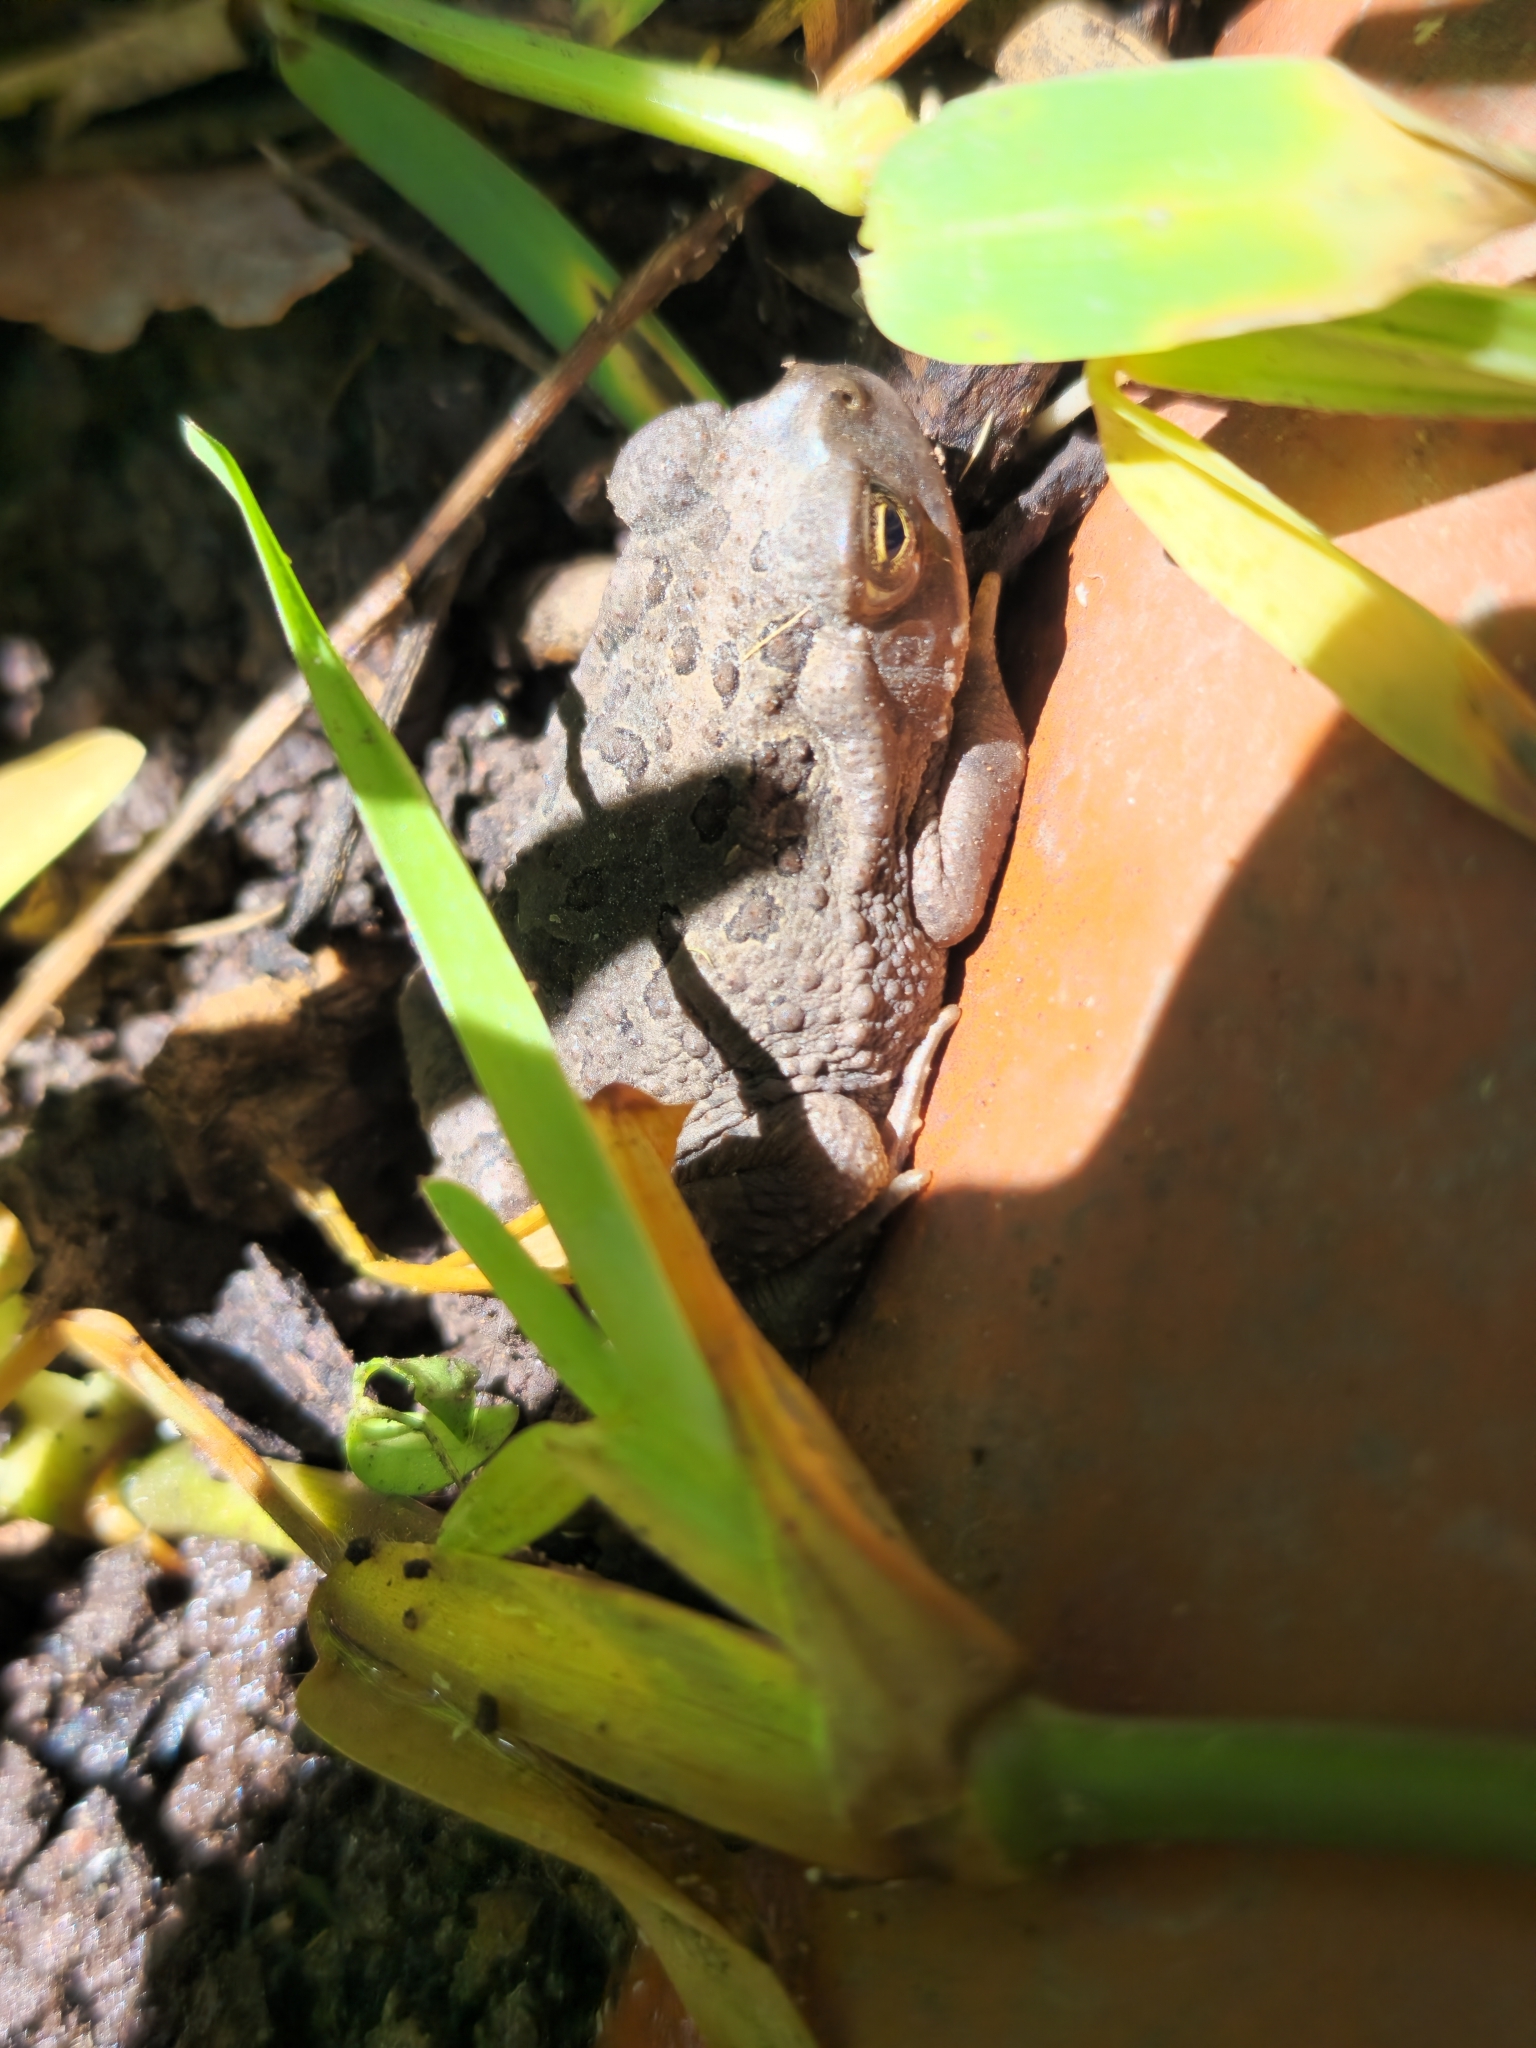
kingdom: Animalia
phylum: Chordata
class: Amphibia
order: Anura
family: Bufonidae
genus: Rhinella
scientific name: Rhinella arenarum
